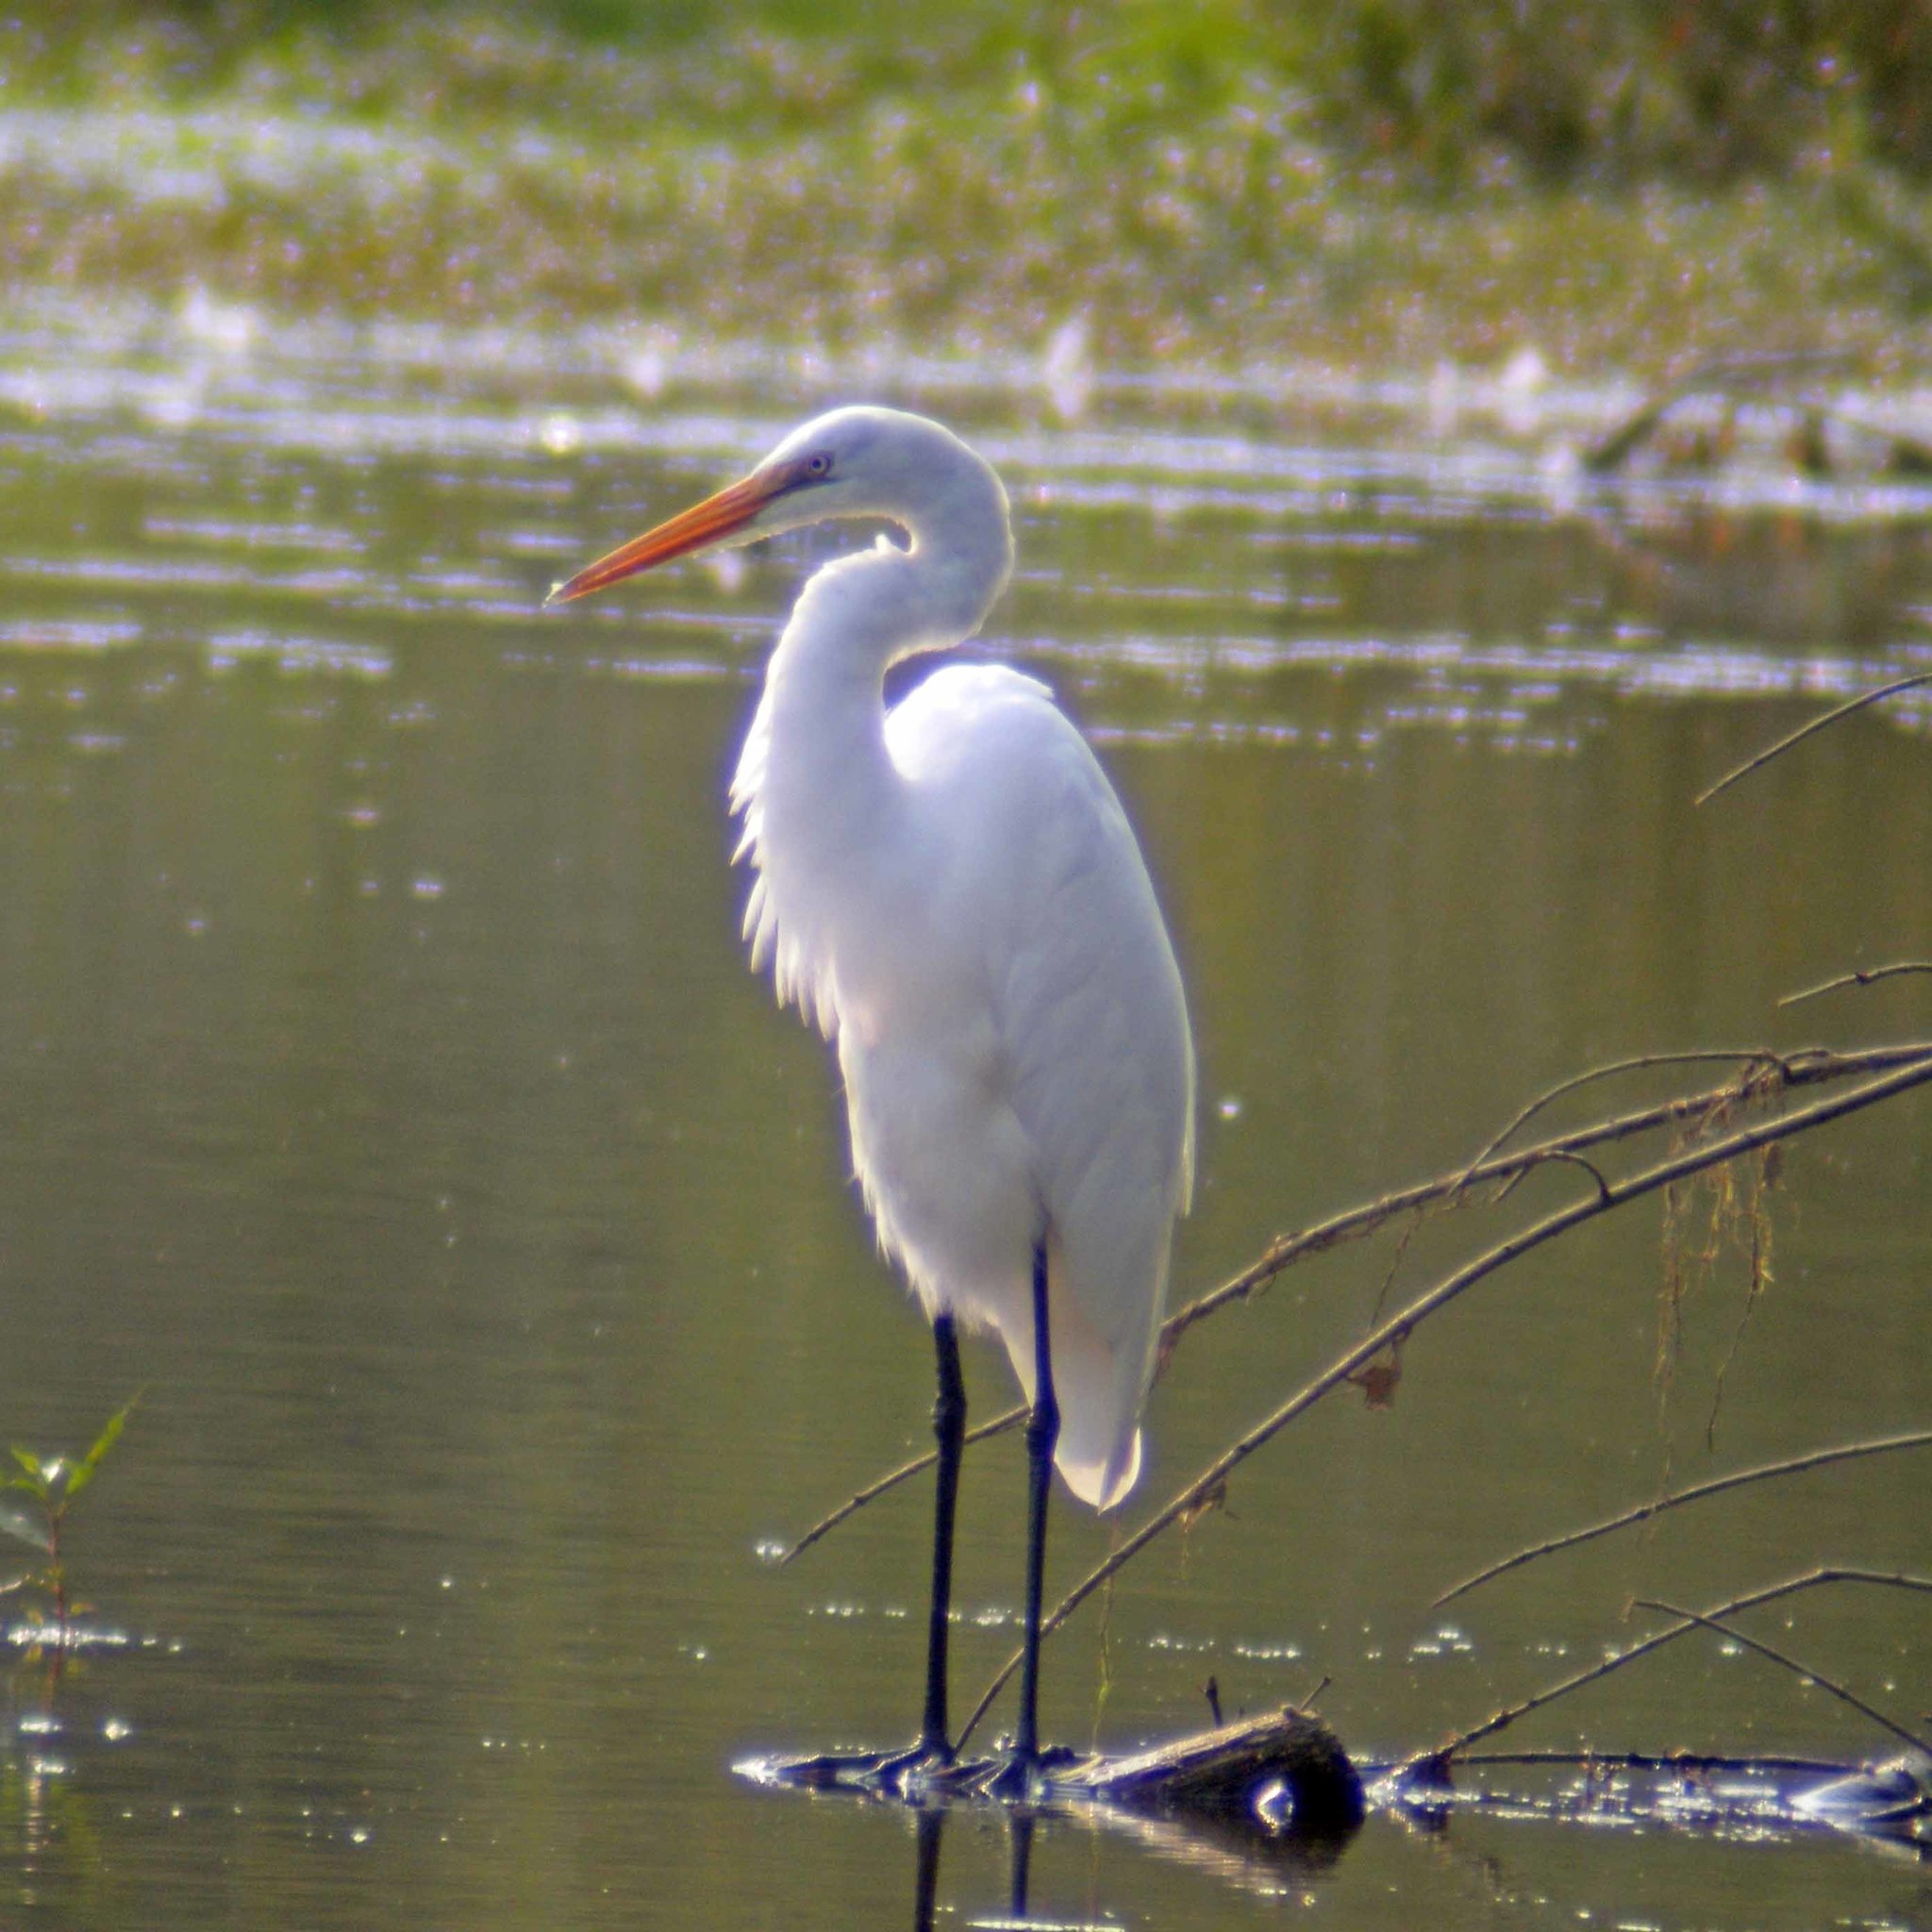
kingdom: Animalia
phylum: Chordata
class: Aves
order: Pelecaniformes
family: Ardeidae
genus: Ardea
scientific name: Ardea alba
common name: Great egret
